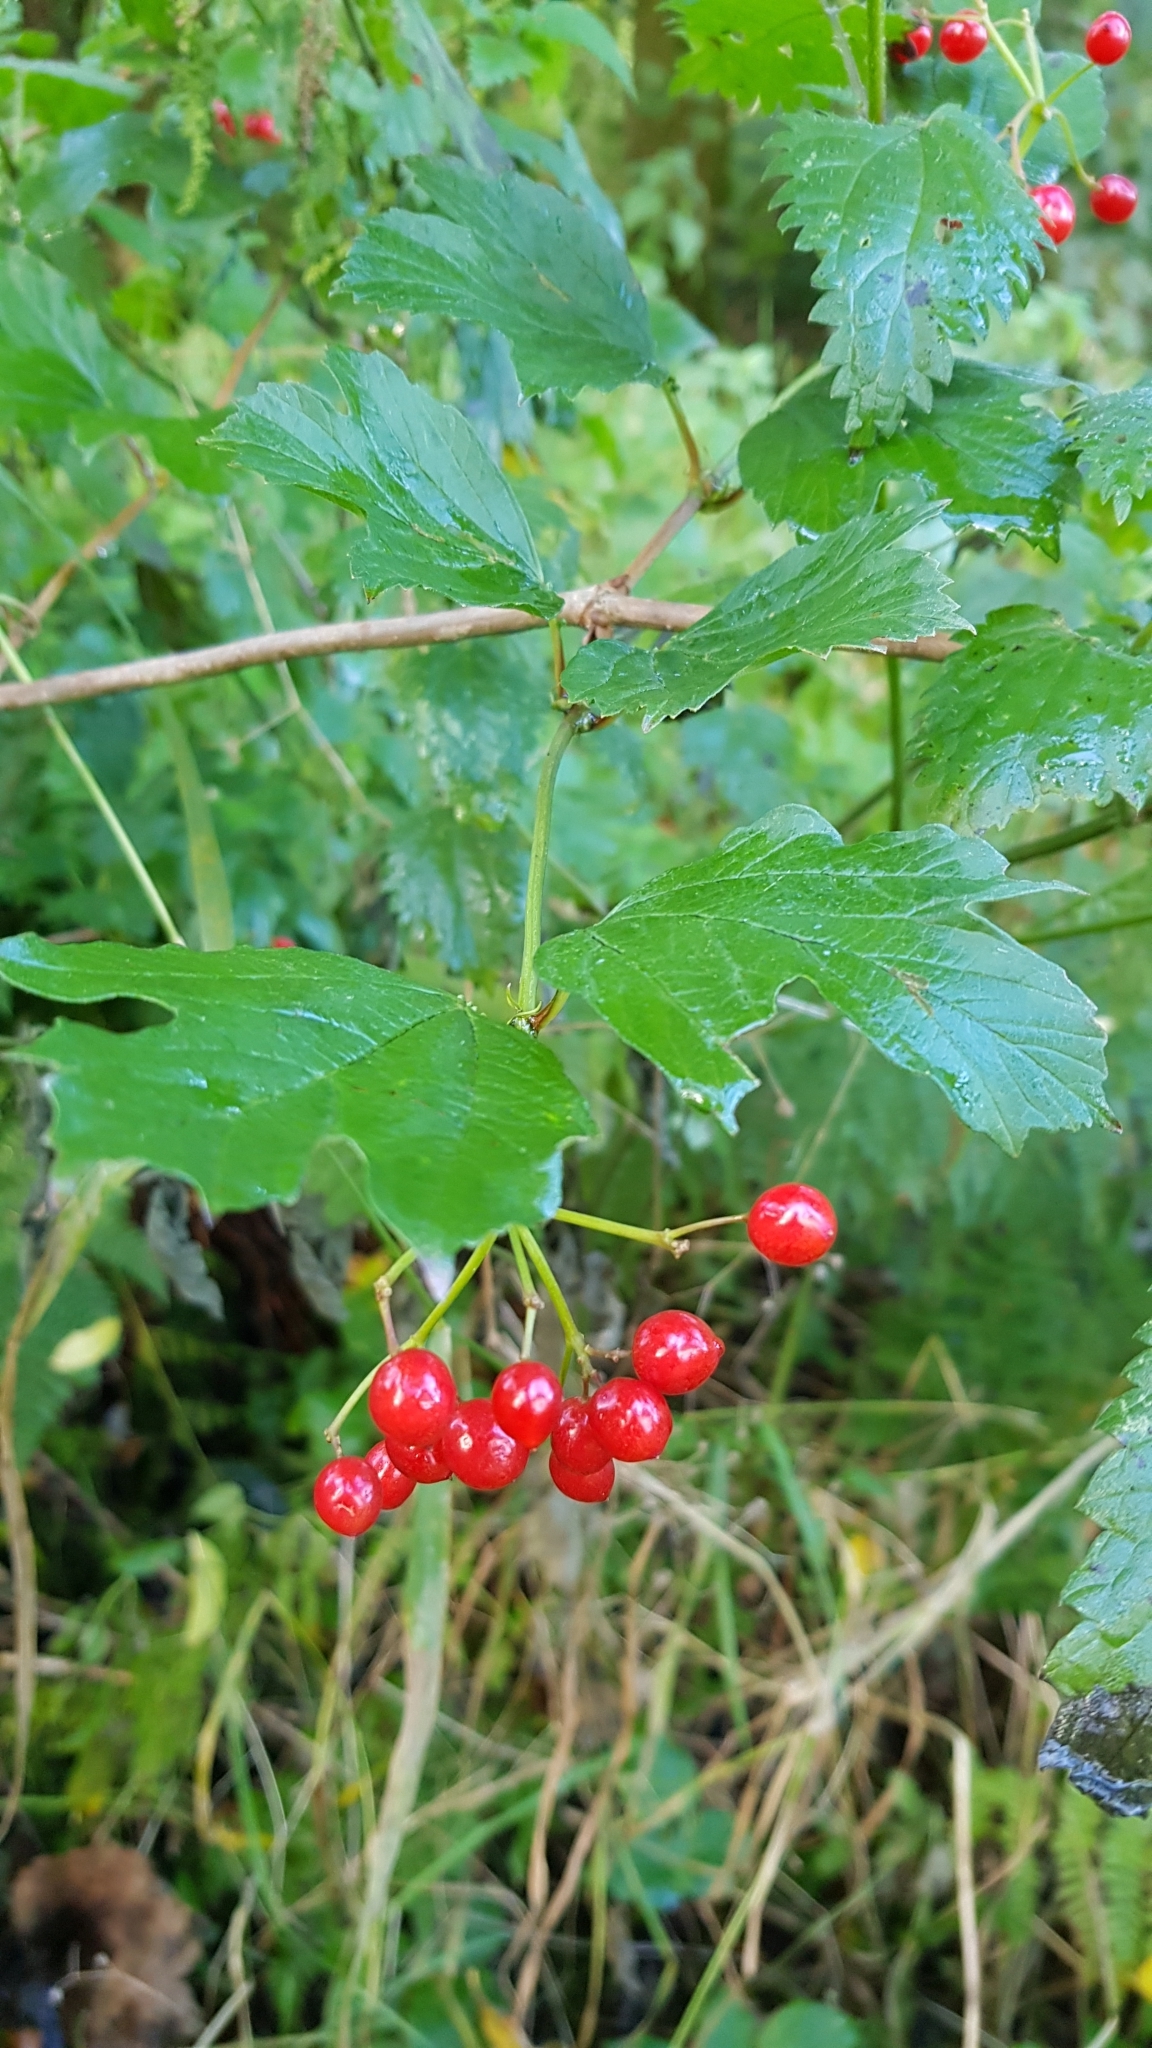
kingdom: Plantae
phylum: Tracheophyta
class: Magnoliopsida
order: Dipsacales
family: Viburnaceae
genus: Viburnum
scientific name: Viburnum opulus
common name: Guelder-rose
